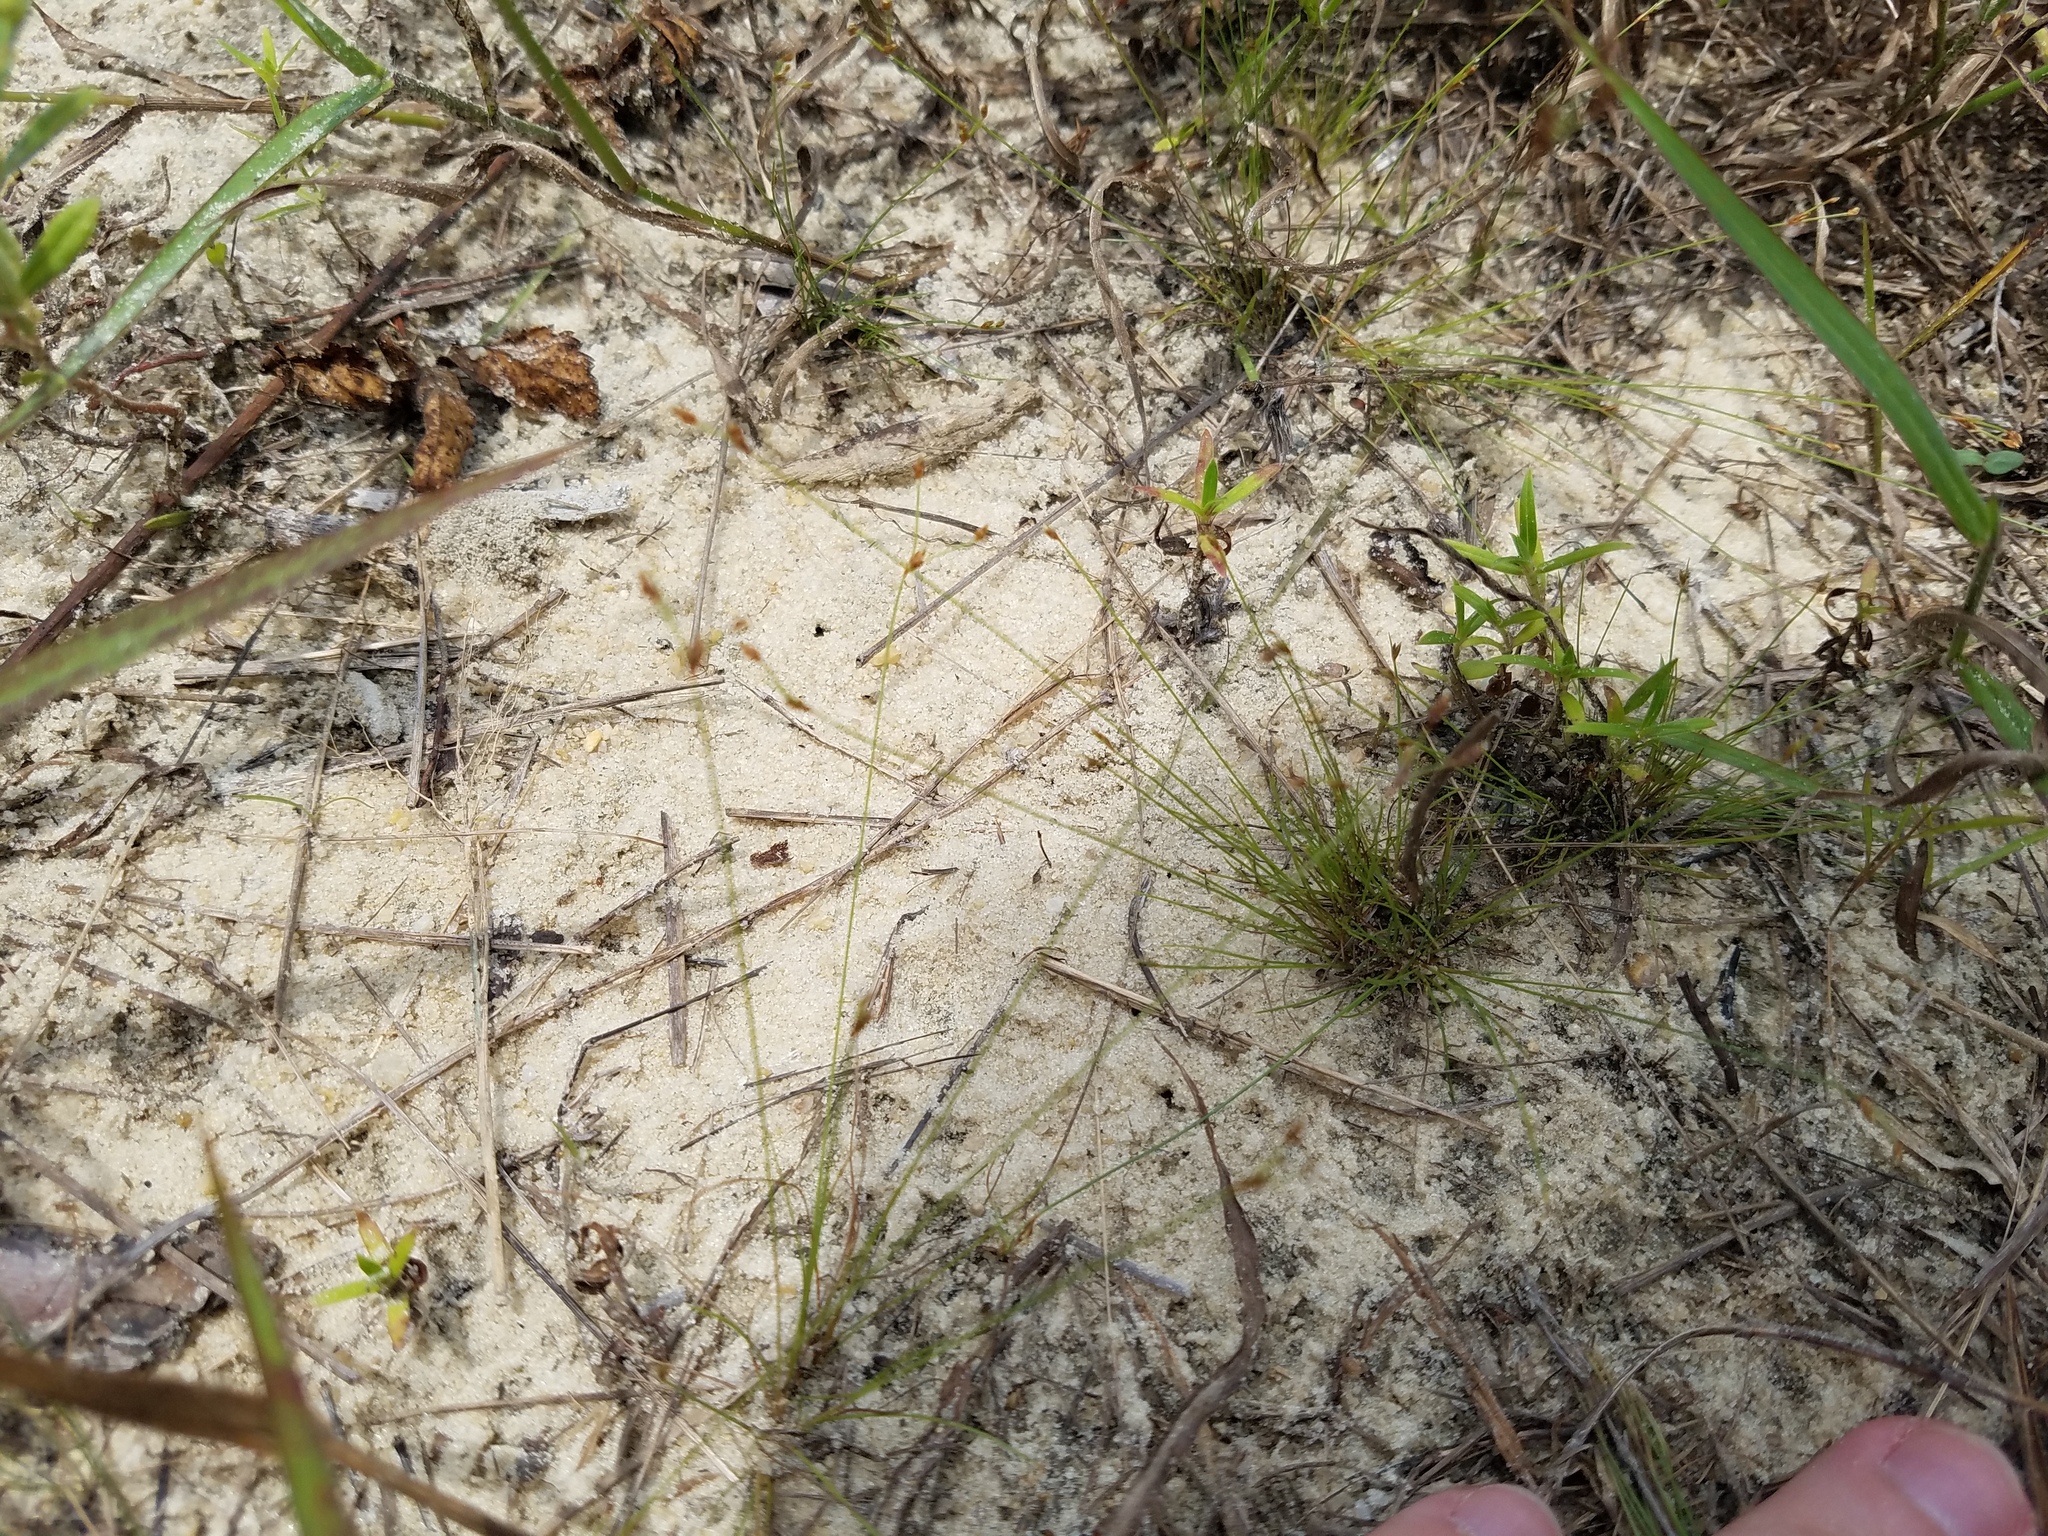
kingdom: Plantae
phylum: Tracheophyta
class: Liliopsida
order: Poales
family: Cyperaceae
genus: Bulbostylis
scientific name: Bulbostylis ciliatifolia
